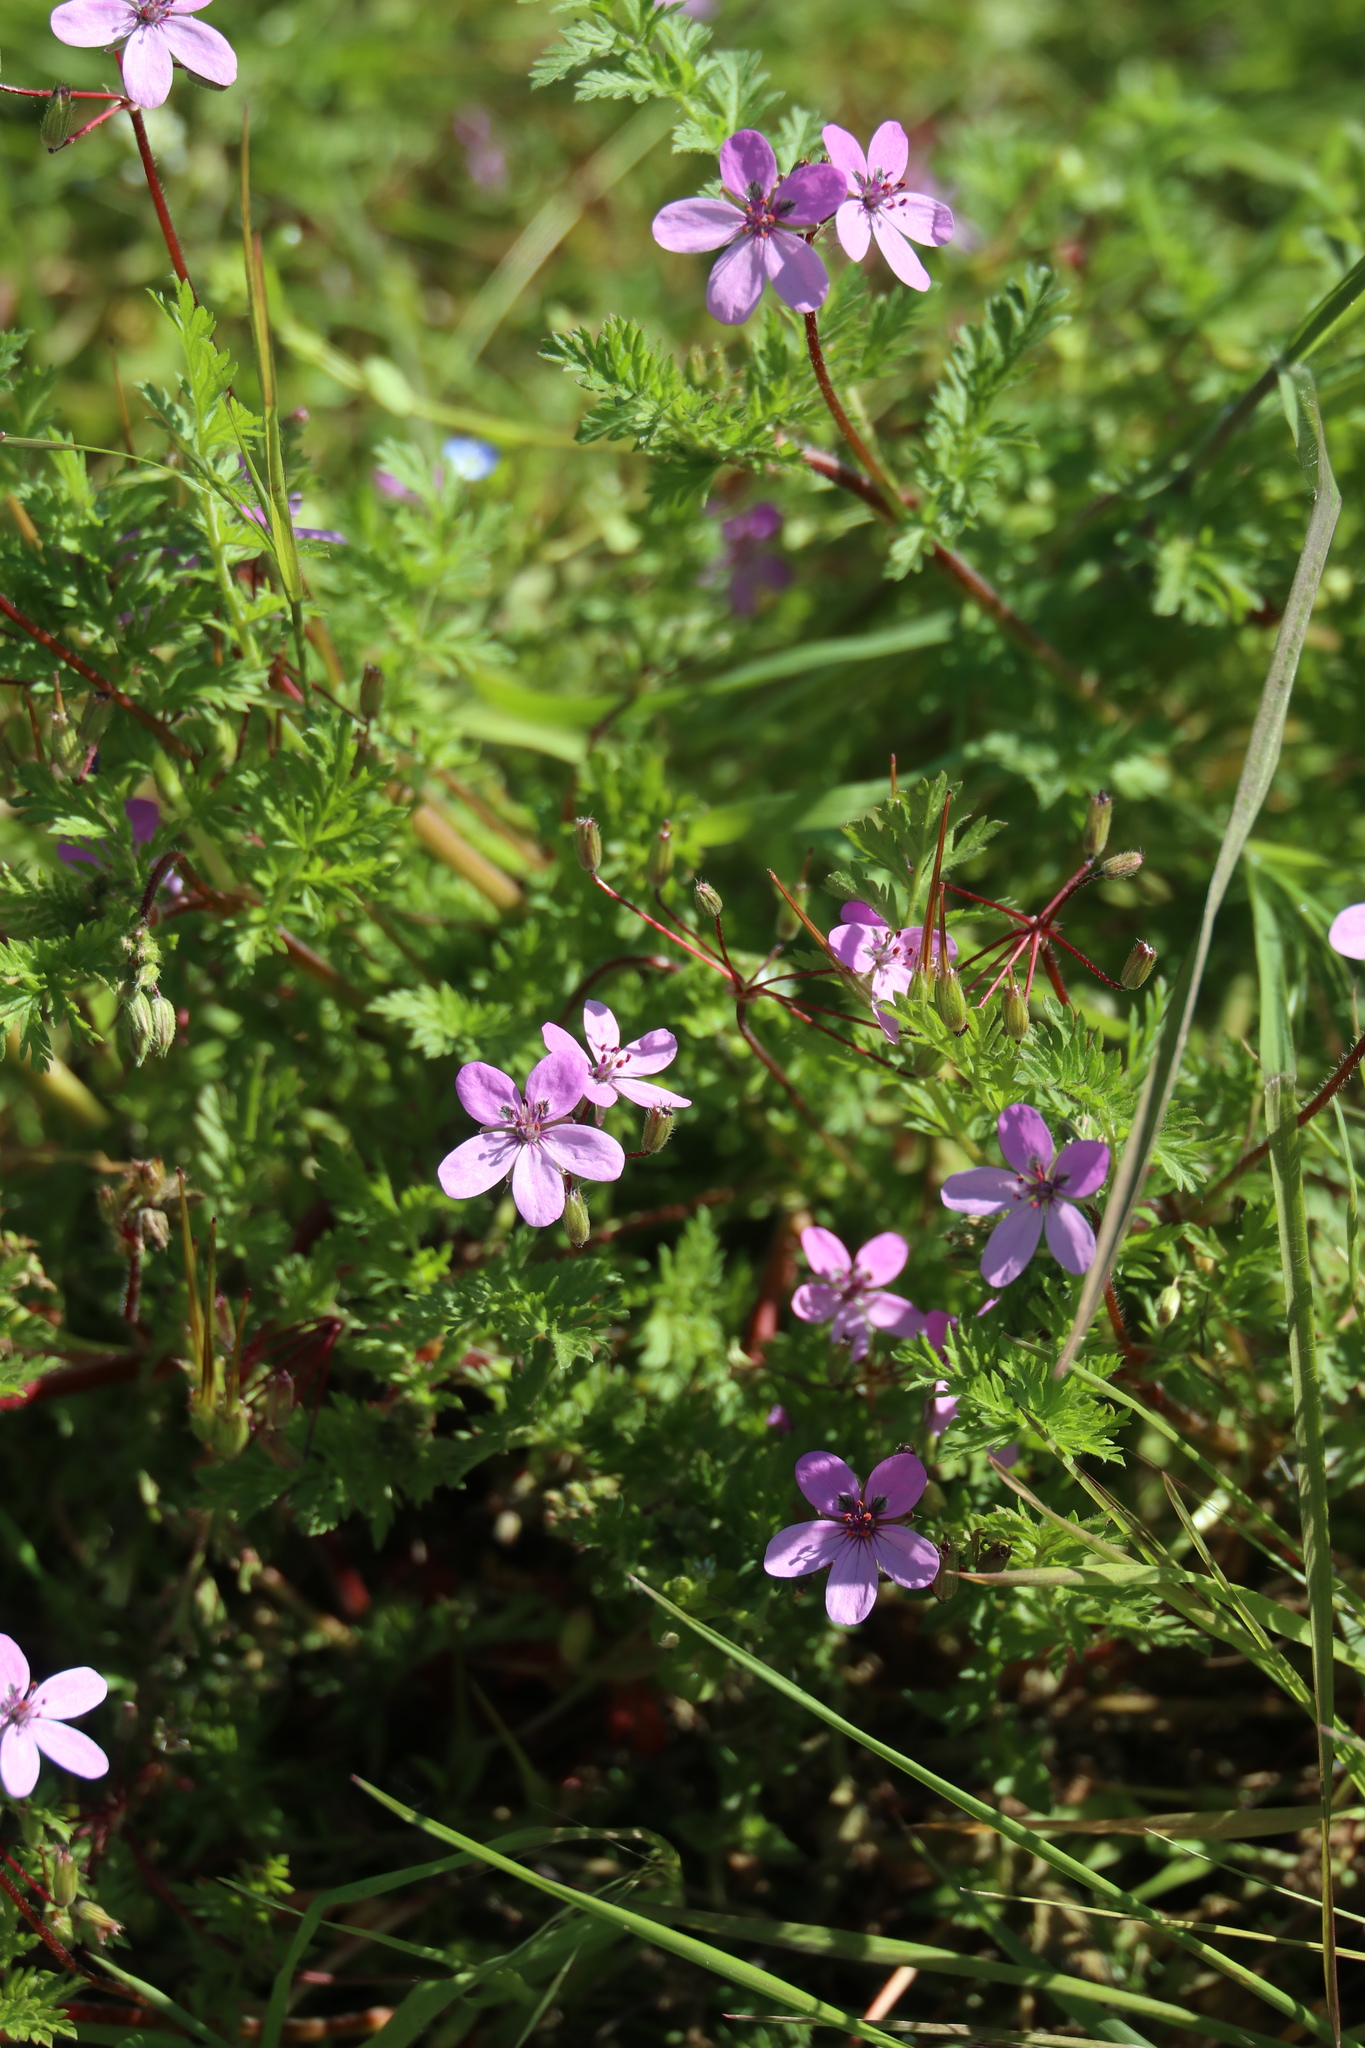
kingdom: Plantae
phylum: Tracheophyta
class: Magnoliopsida
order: Geraniales
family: Geraniaceae
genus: Erodium
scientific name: Erodium cicutarium
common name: Common stork's-bill
